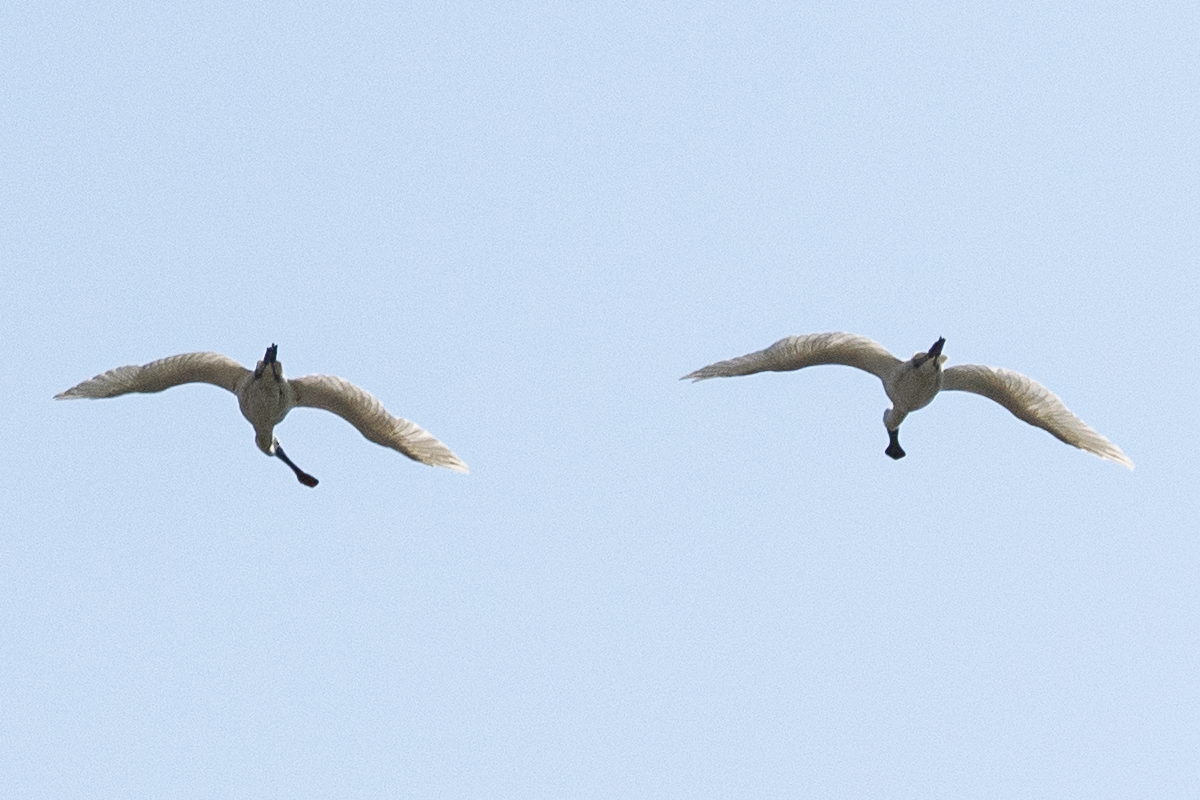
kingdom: Animalia
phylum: Chordata
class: Aves
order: Pelecaniformes
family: Threskiornithidae
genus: Platalea
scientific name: Platalea minor
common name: Black-faced spoonbill
